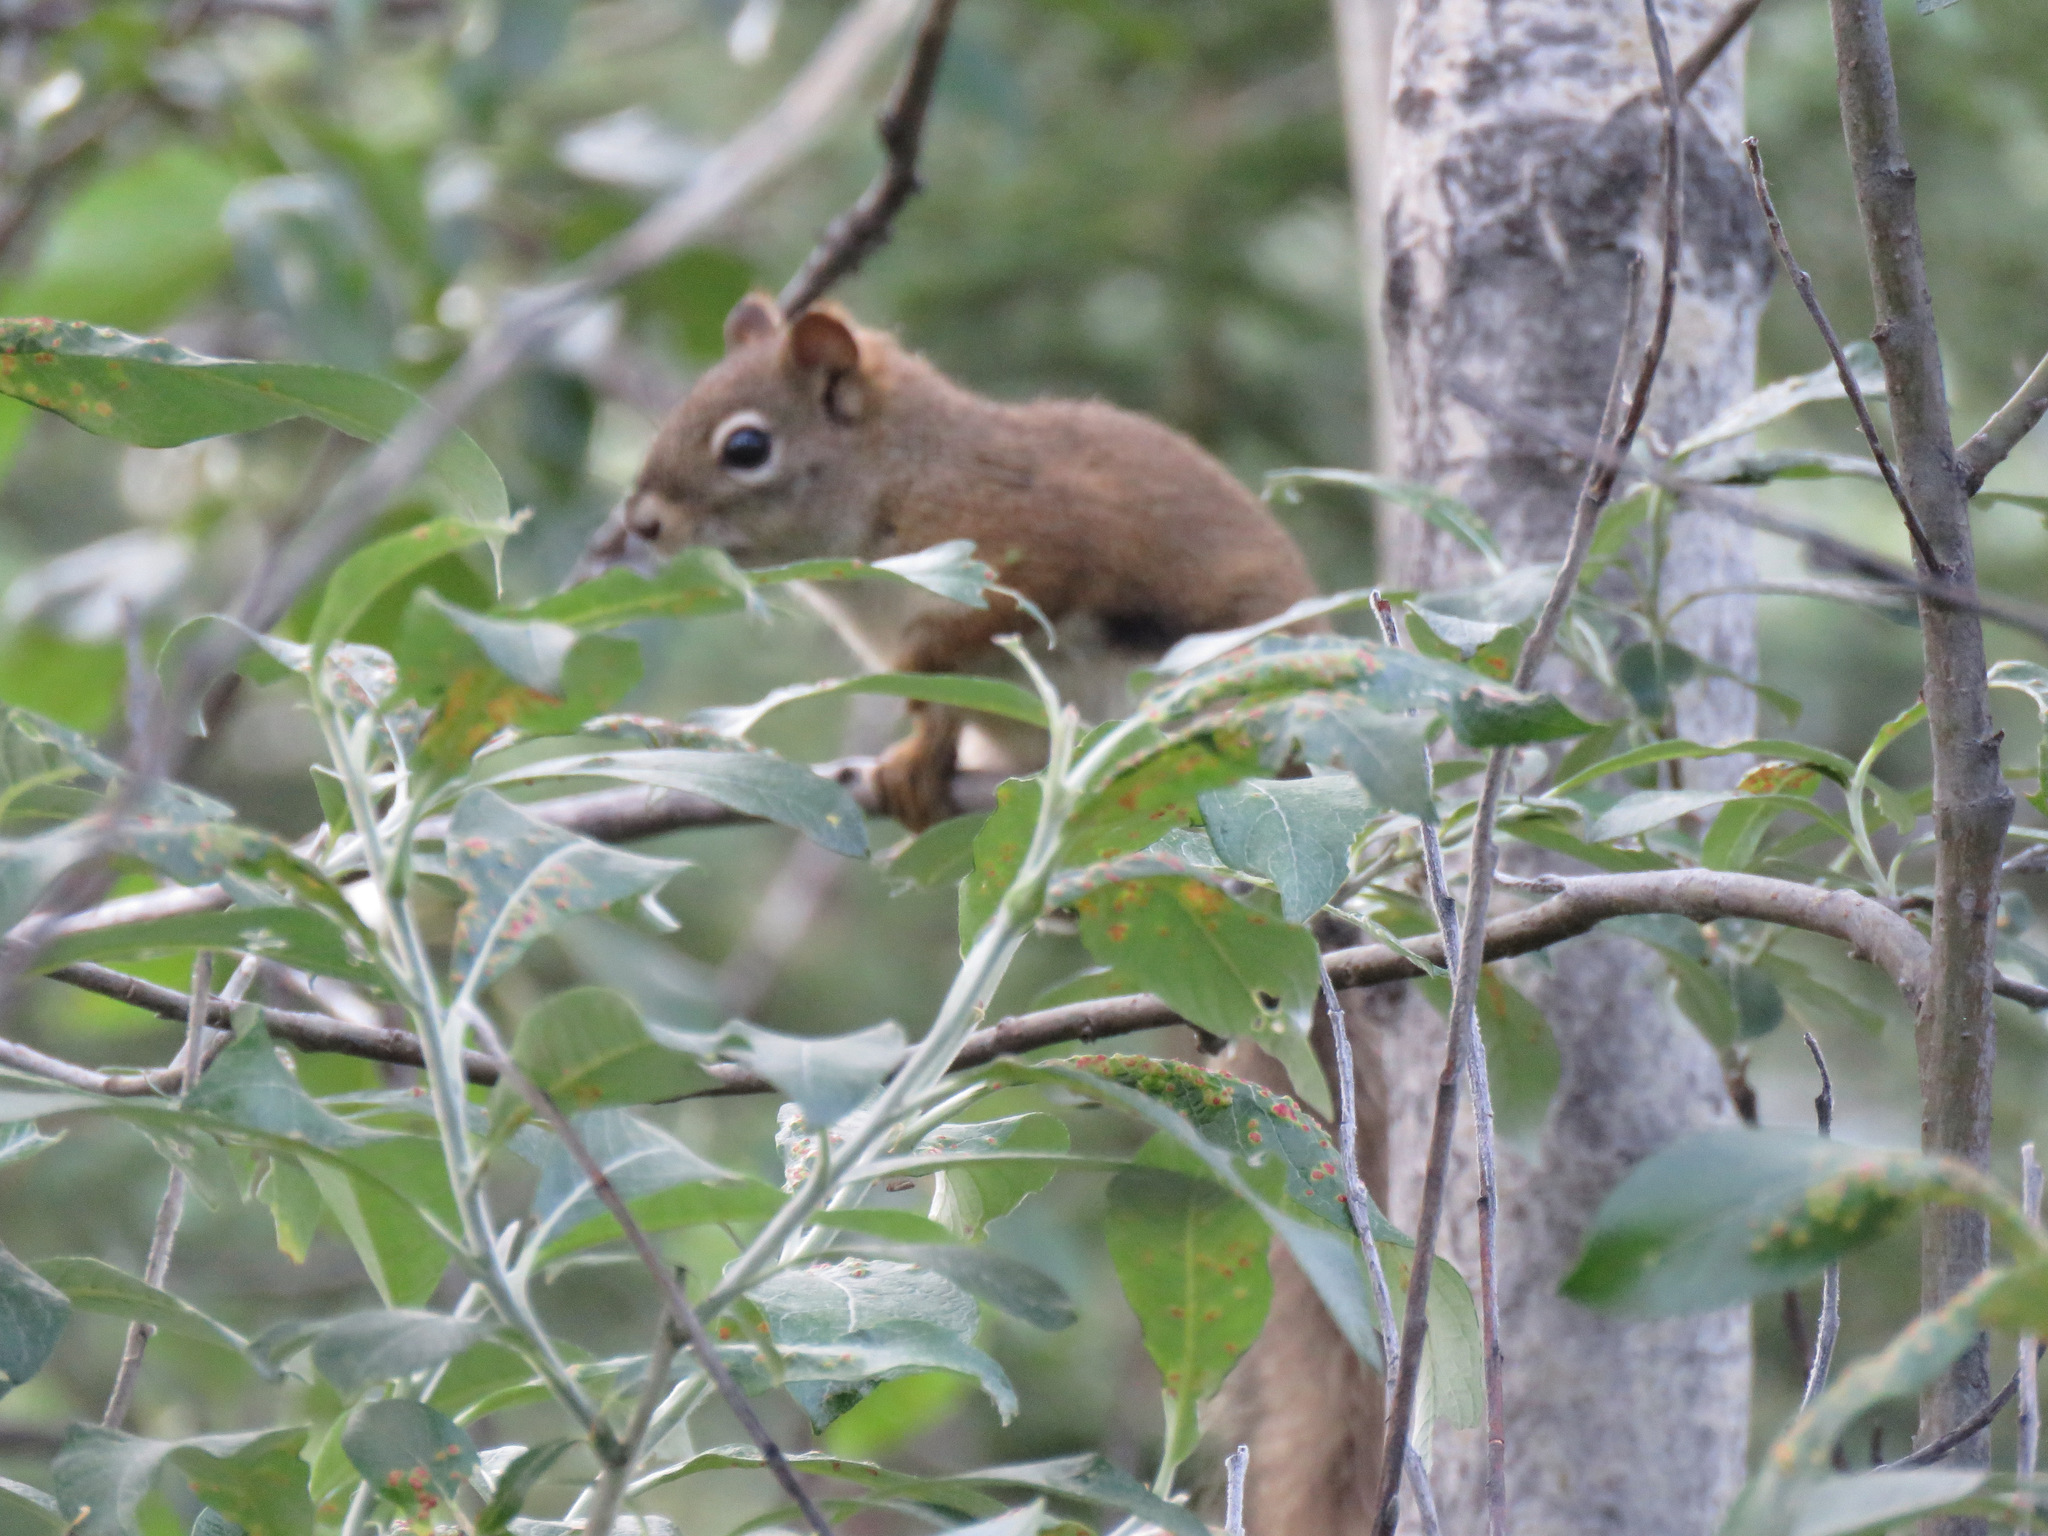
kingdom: Animalia
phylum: Chordata
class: Mammalia
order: Rodentia
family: Sciuridae
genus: Tamiasciurus
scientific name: Tamiasciurus hudsonicus
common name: Red squirrel
